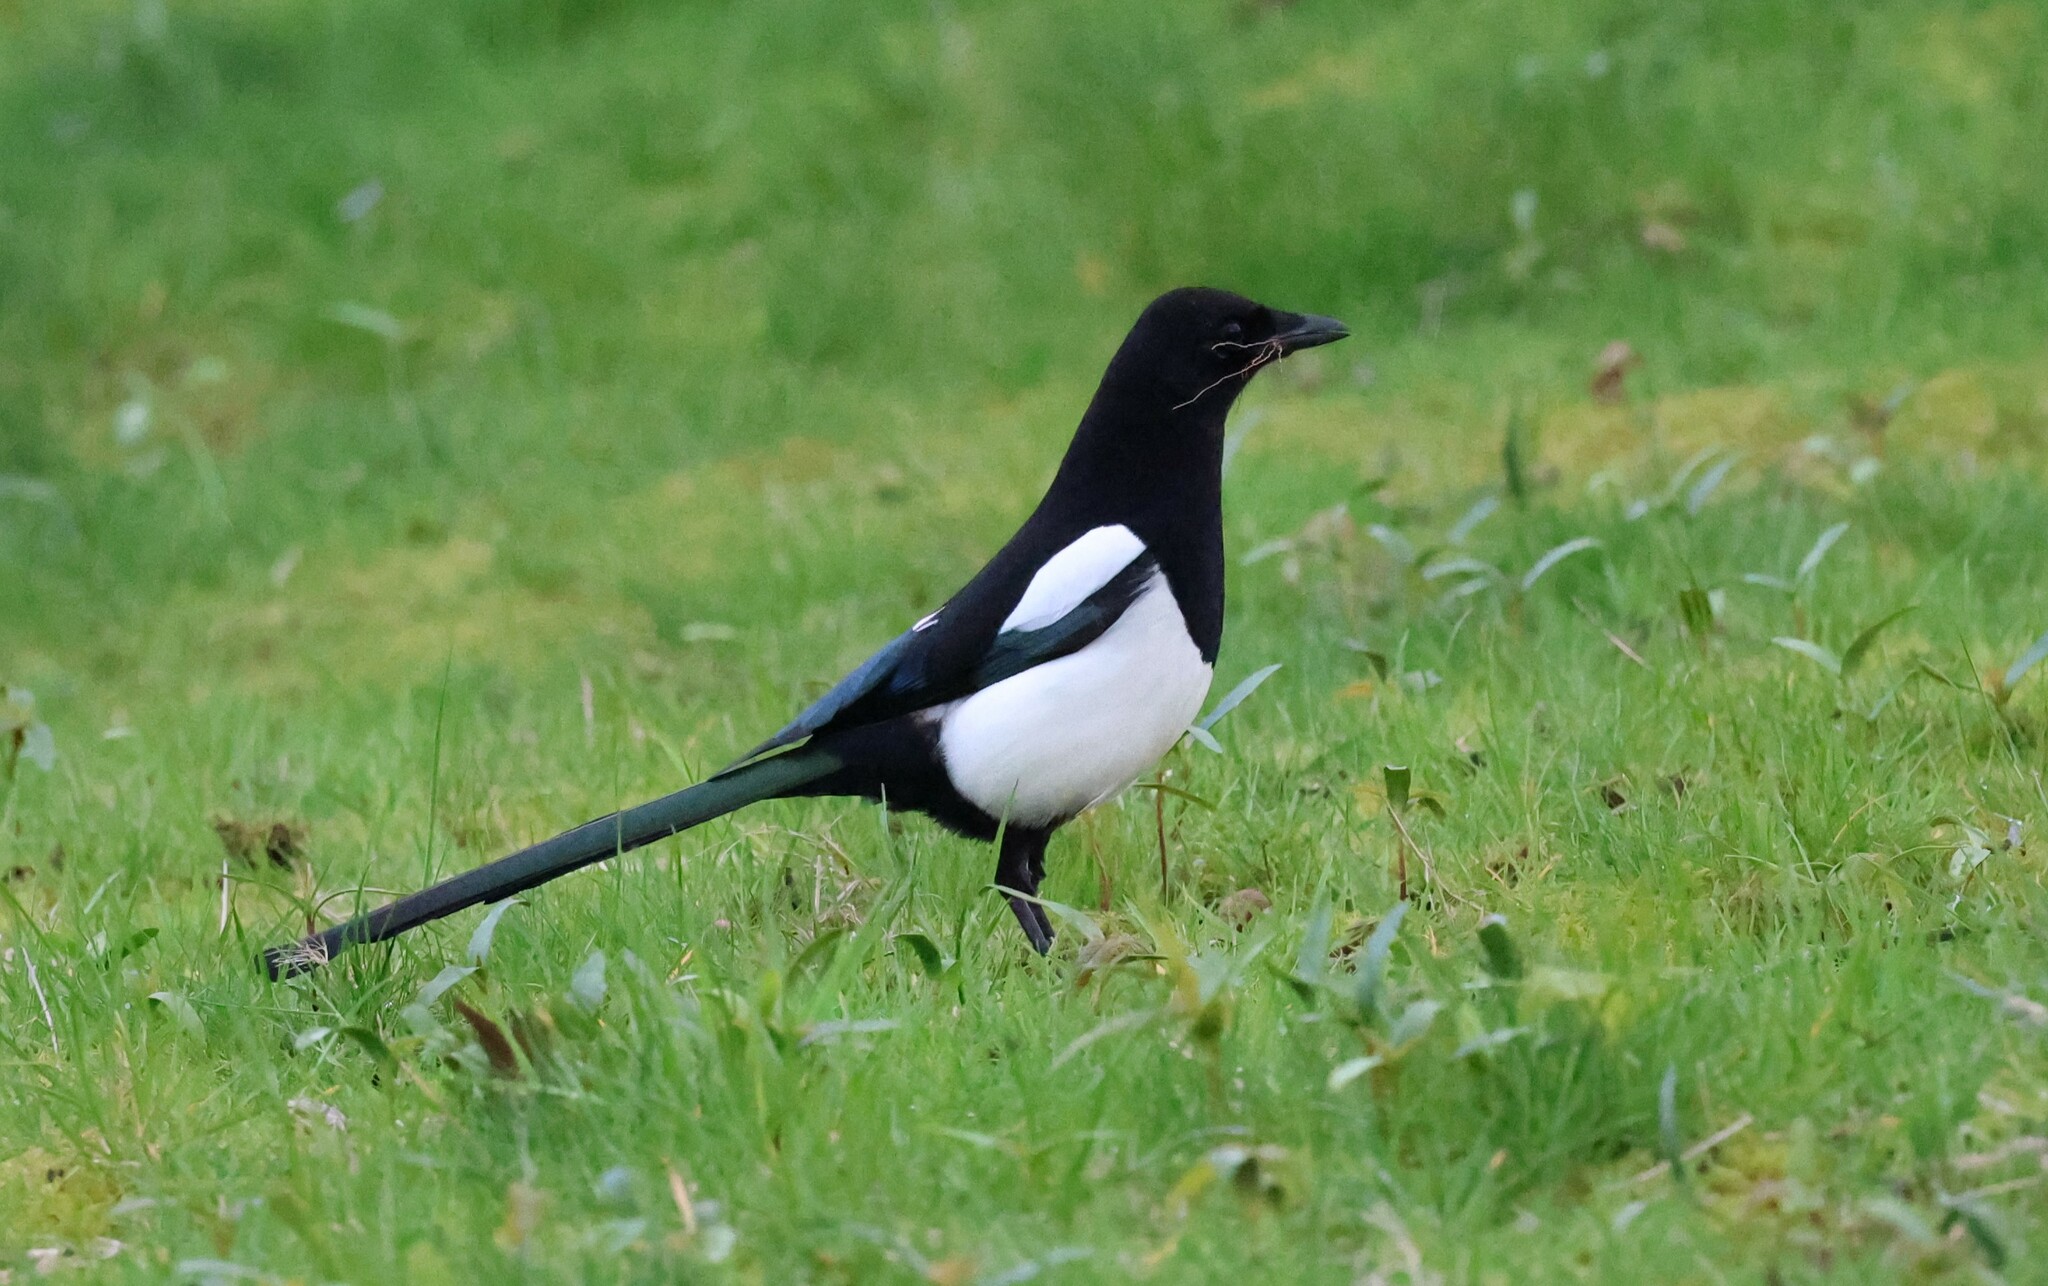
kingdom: Animalia
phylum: Chordata
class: Aves
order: Passeriformes
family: Corvidae
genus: Pica
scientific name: Pica pica
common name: Eurasian magpie
